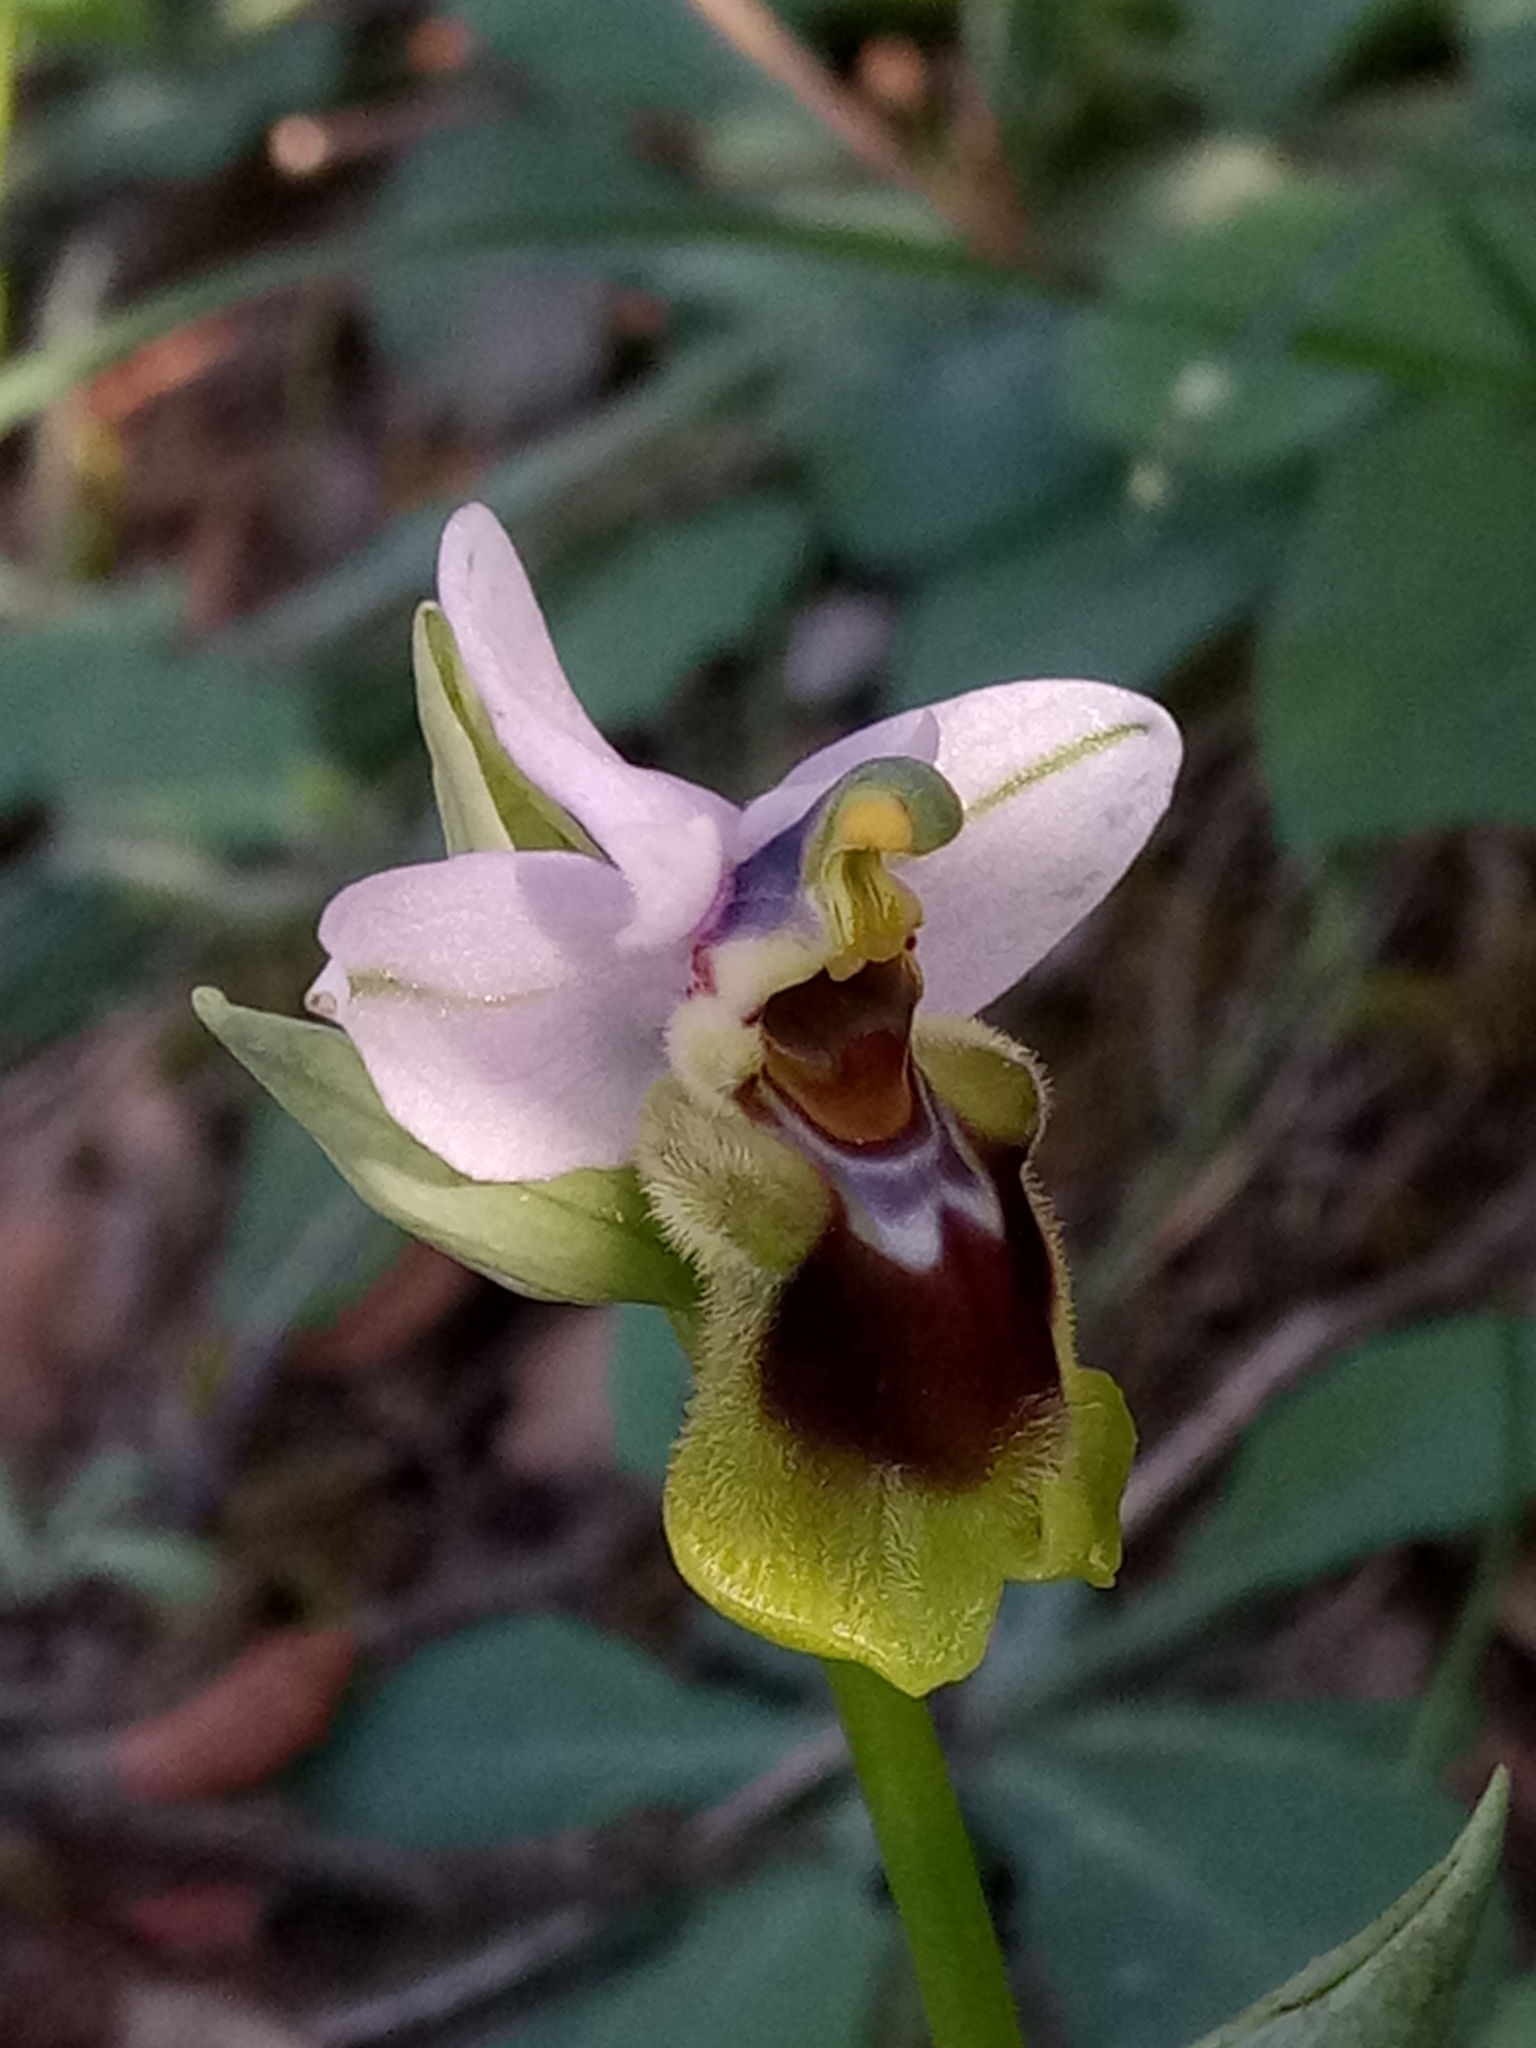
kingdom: Plantae
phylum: Tracheophyta
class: Liliopsida
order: Asparagales
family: Orchidaceae
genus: Ophrys
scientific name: Ophrys tenthredinifera
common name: Sawfly orchid
